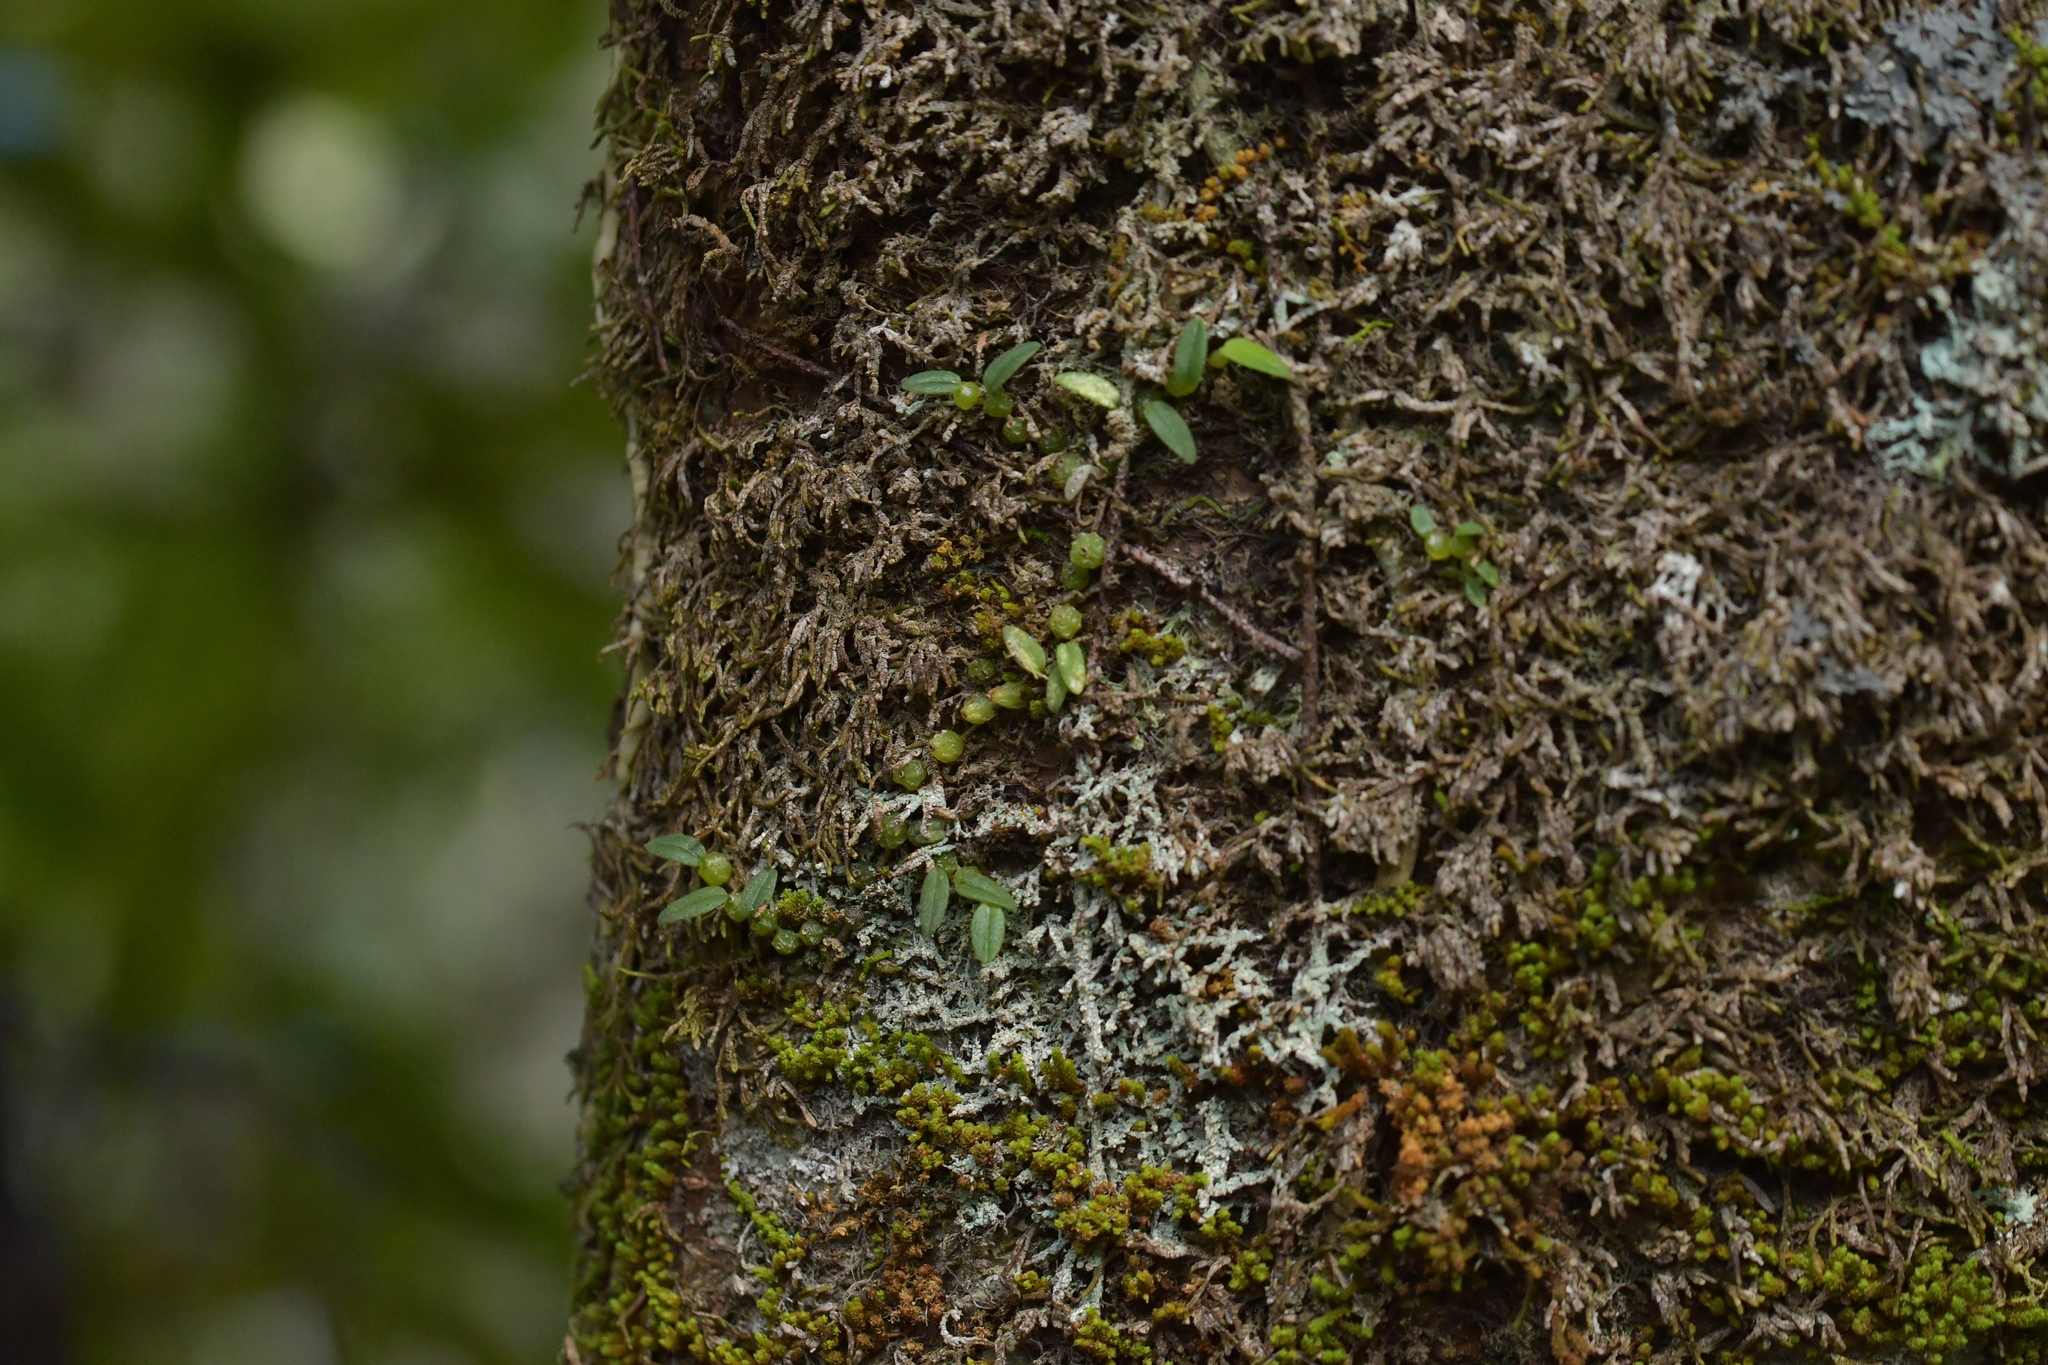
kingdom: Plantae
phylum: Tracheophyta
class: Liliopsida
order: Asparagales
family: Orchidaceae
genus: Bulbophyllum
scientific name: Bulbophyllum pygmaeum
